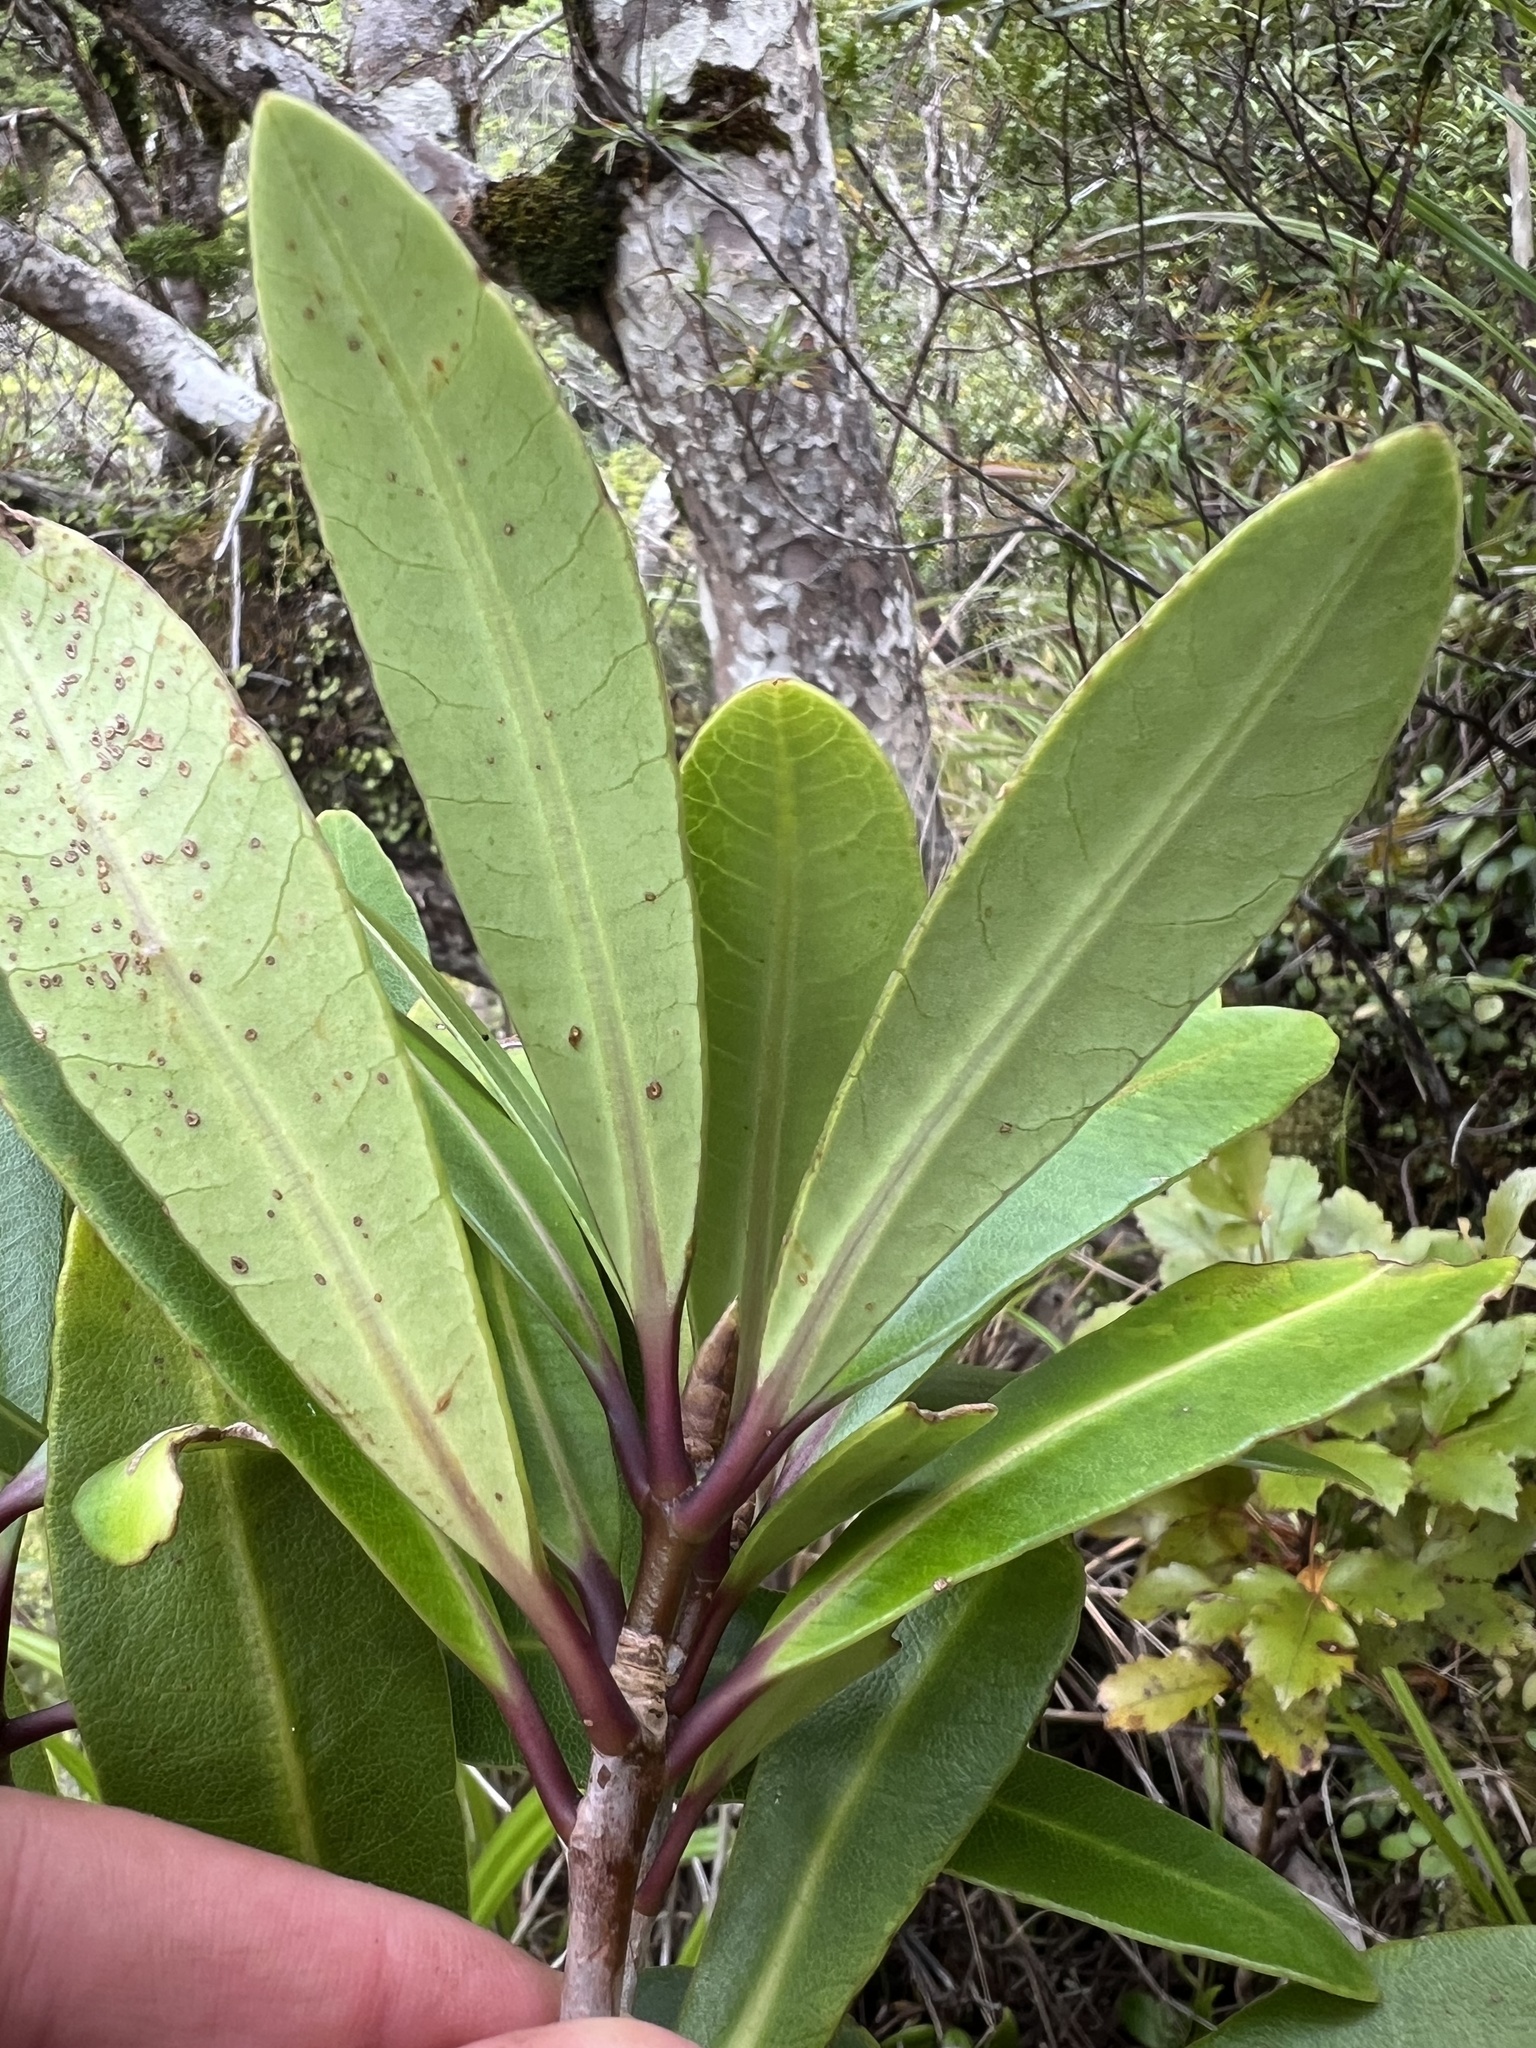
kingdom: Plantae
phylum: Tracheophyta
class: Magnoliopsida
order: Apiales
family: Pittosporaceae
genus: Pittosporum
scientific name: Pittosporum kirkii
